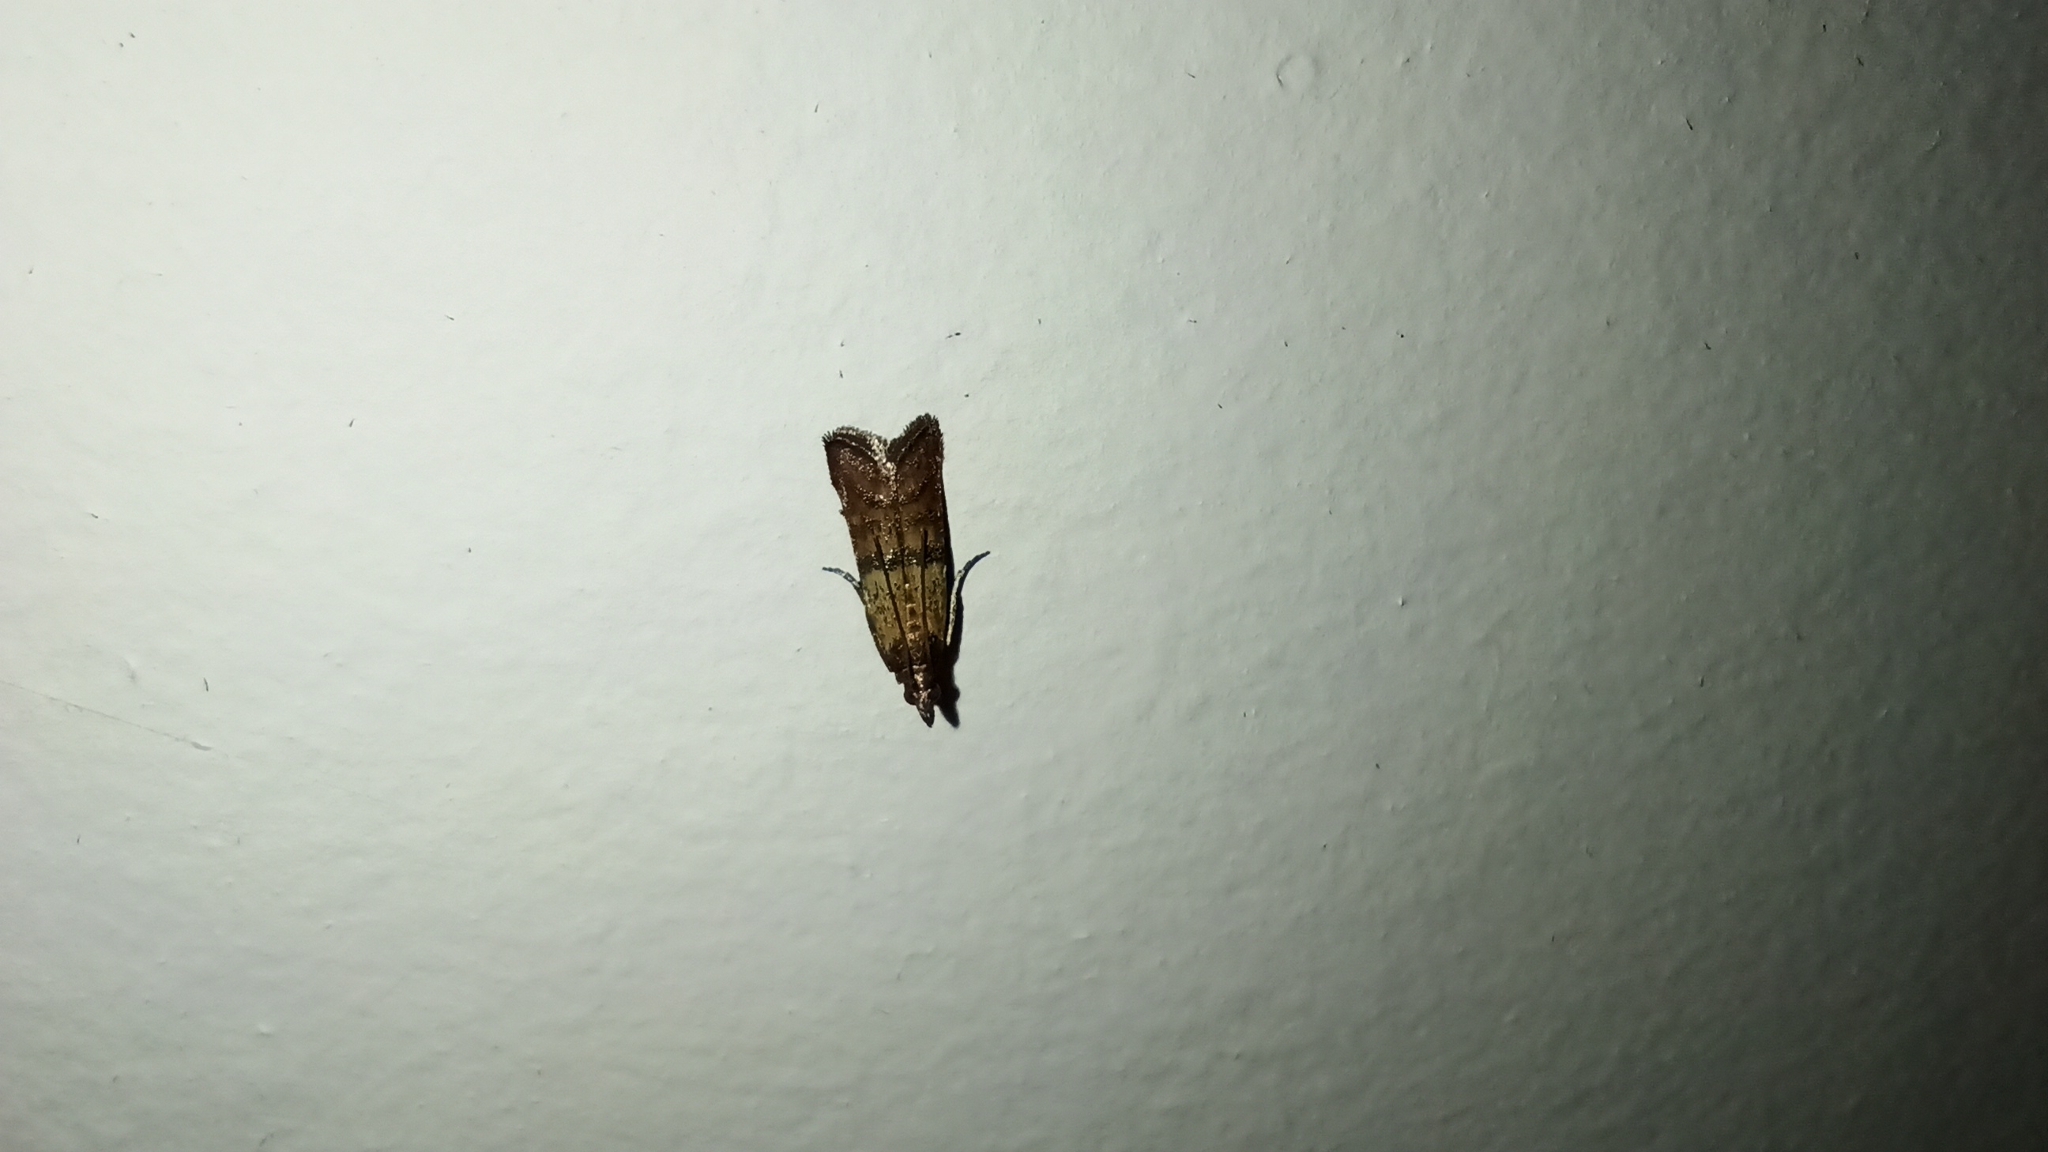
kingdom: Animalia
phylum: Arthropoda
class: Insecta
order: Lepidoptera
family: Pyralidae
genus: Plodia
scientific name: Plodia interpunctella
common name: Indian meal moth
